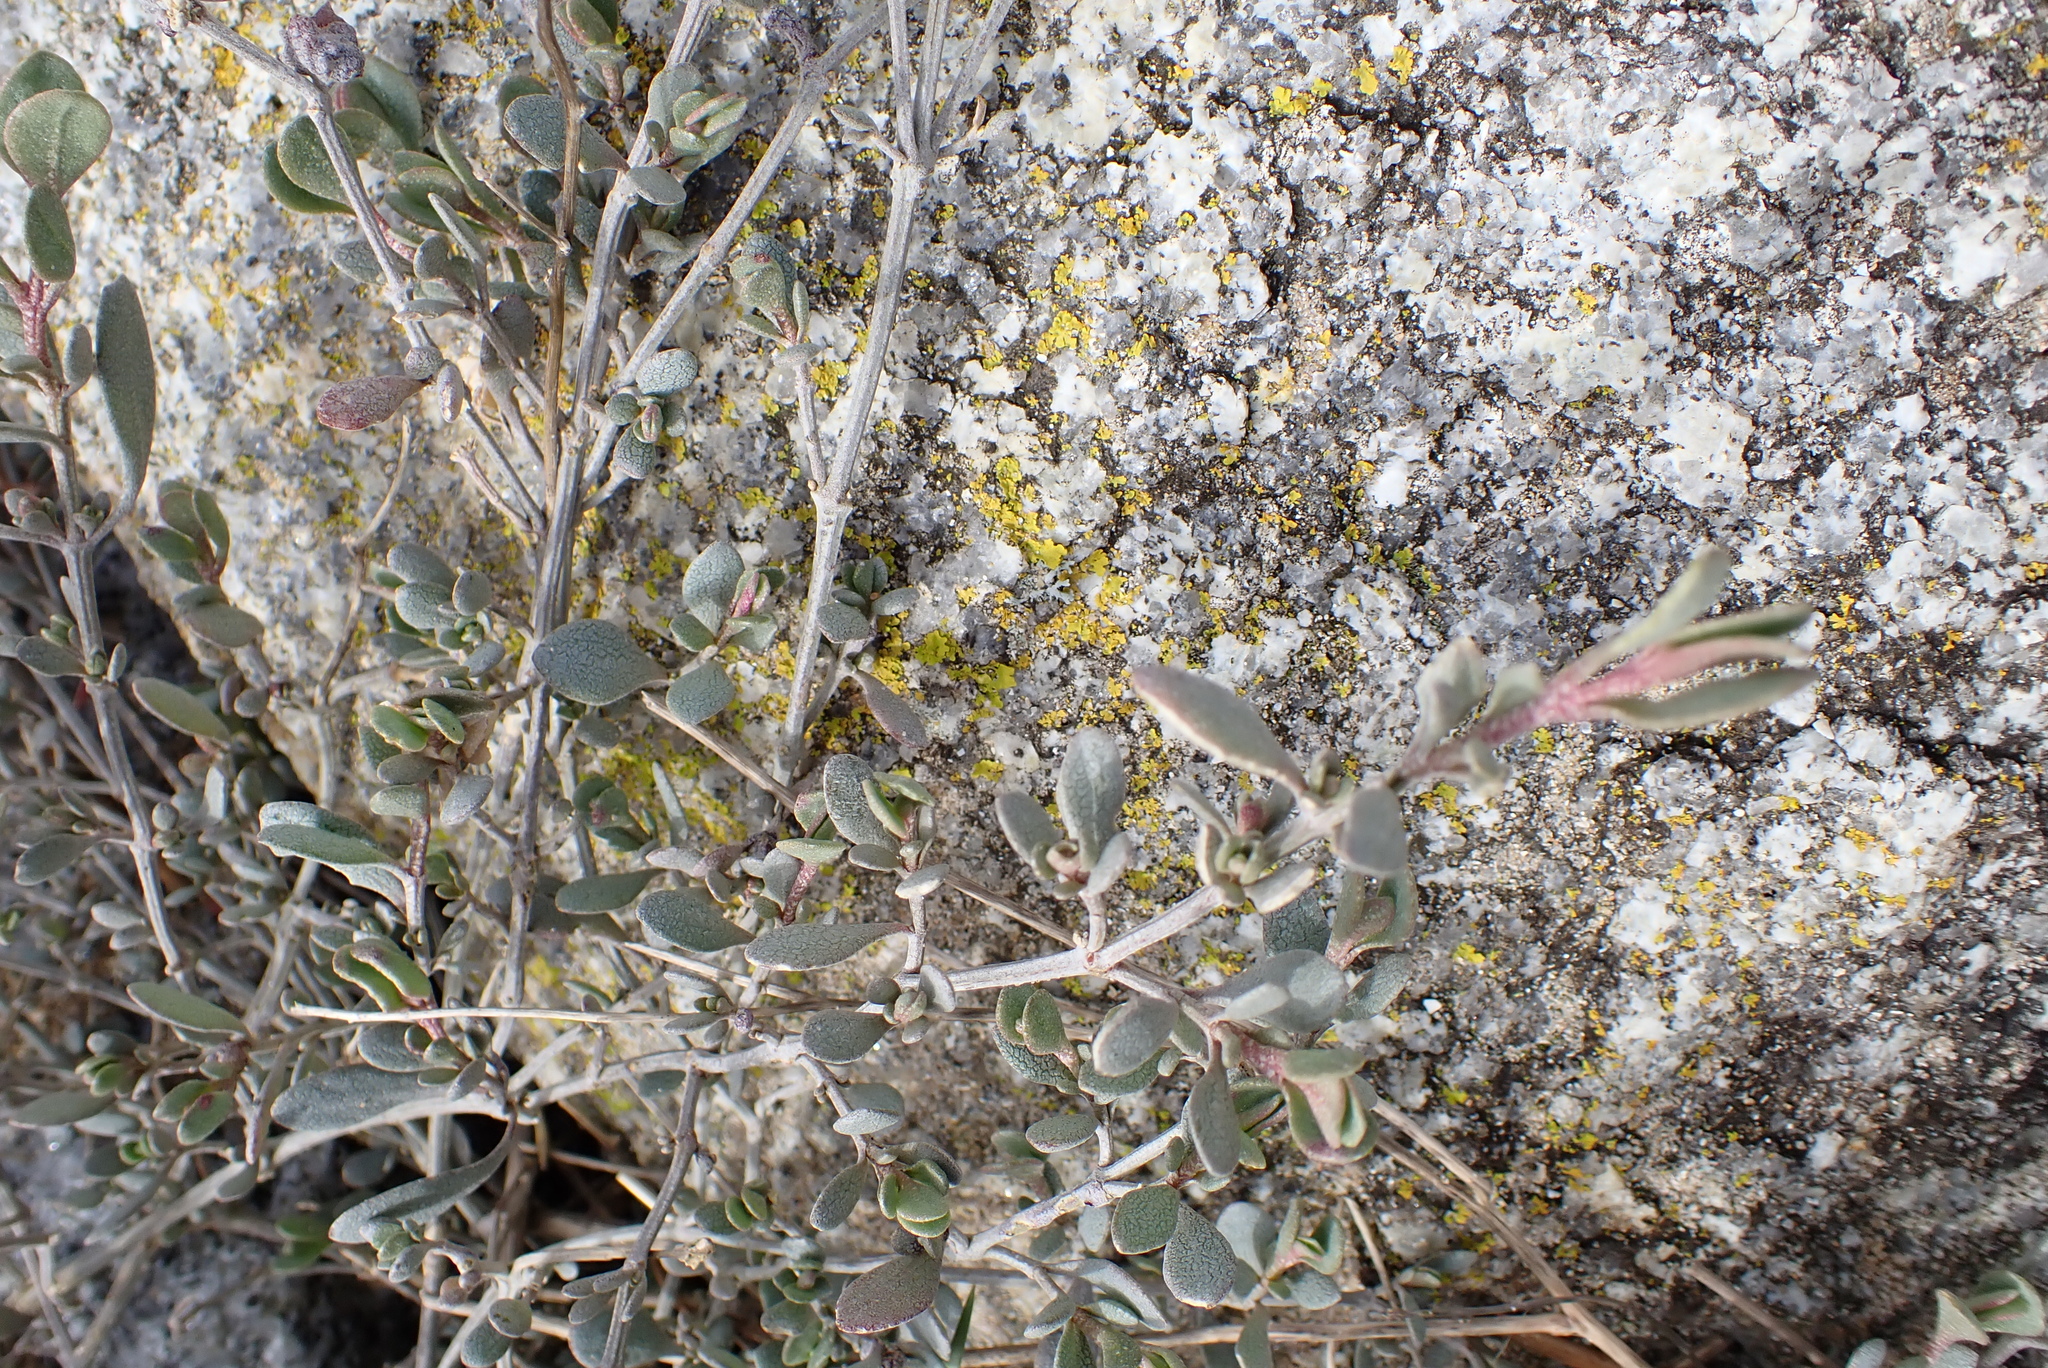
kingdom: Plantae
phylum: Tracheophyta
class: Magnoliopsida
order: Caryophyllales
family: Amaranthaceae
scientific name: Amaranthaceae
